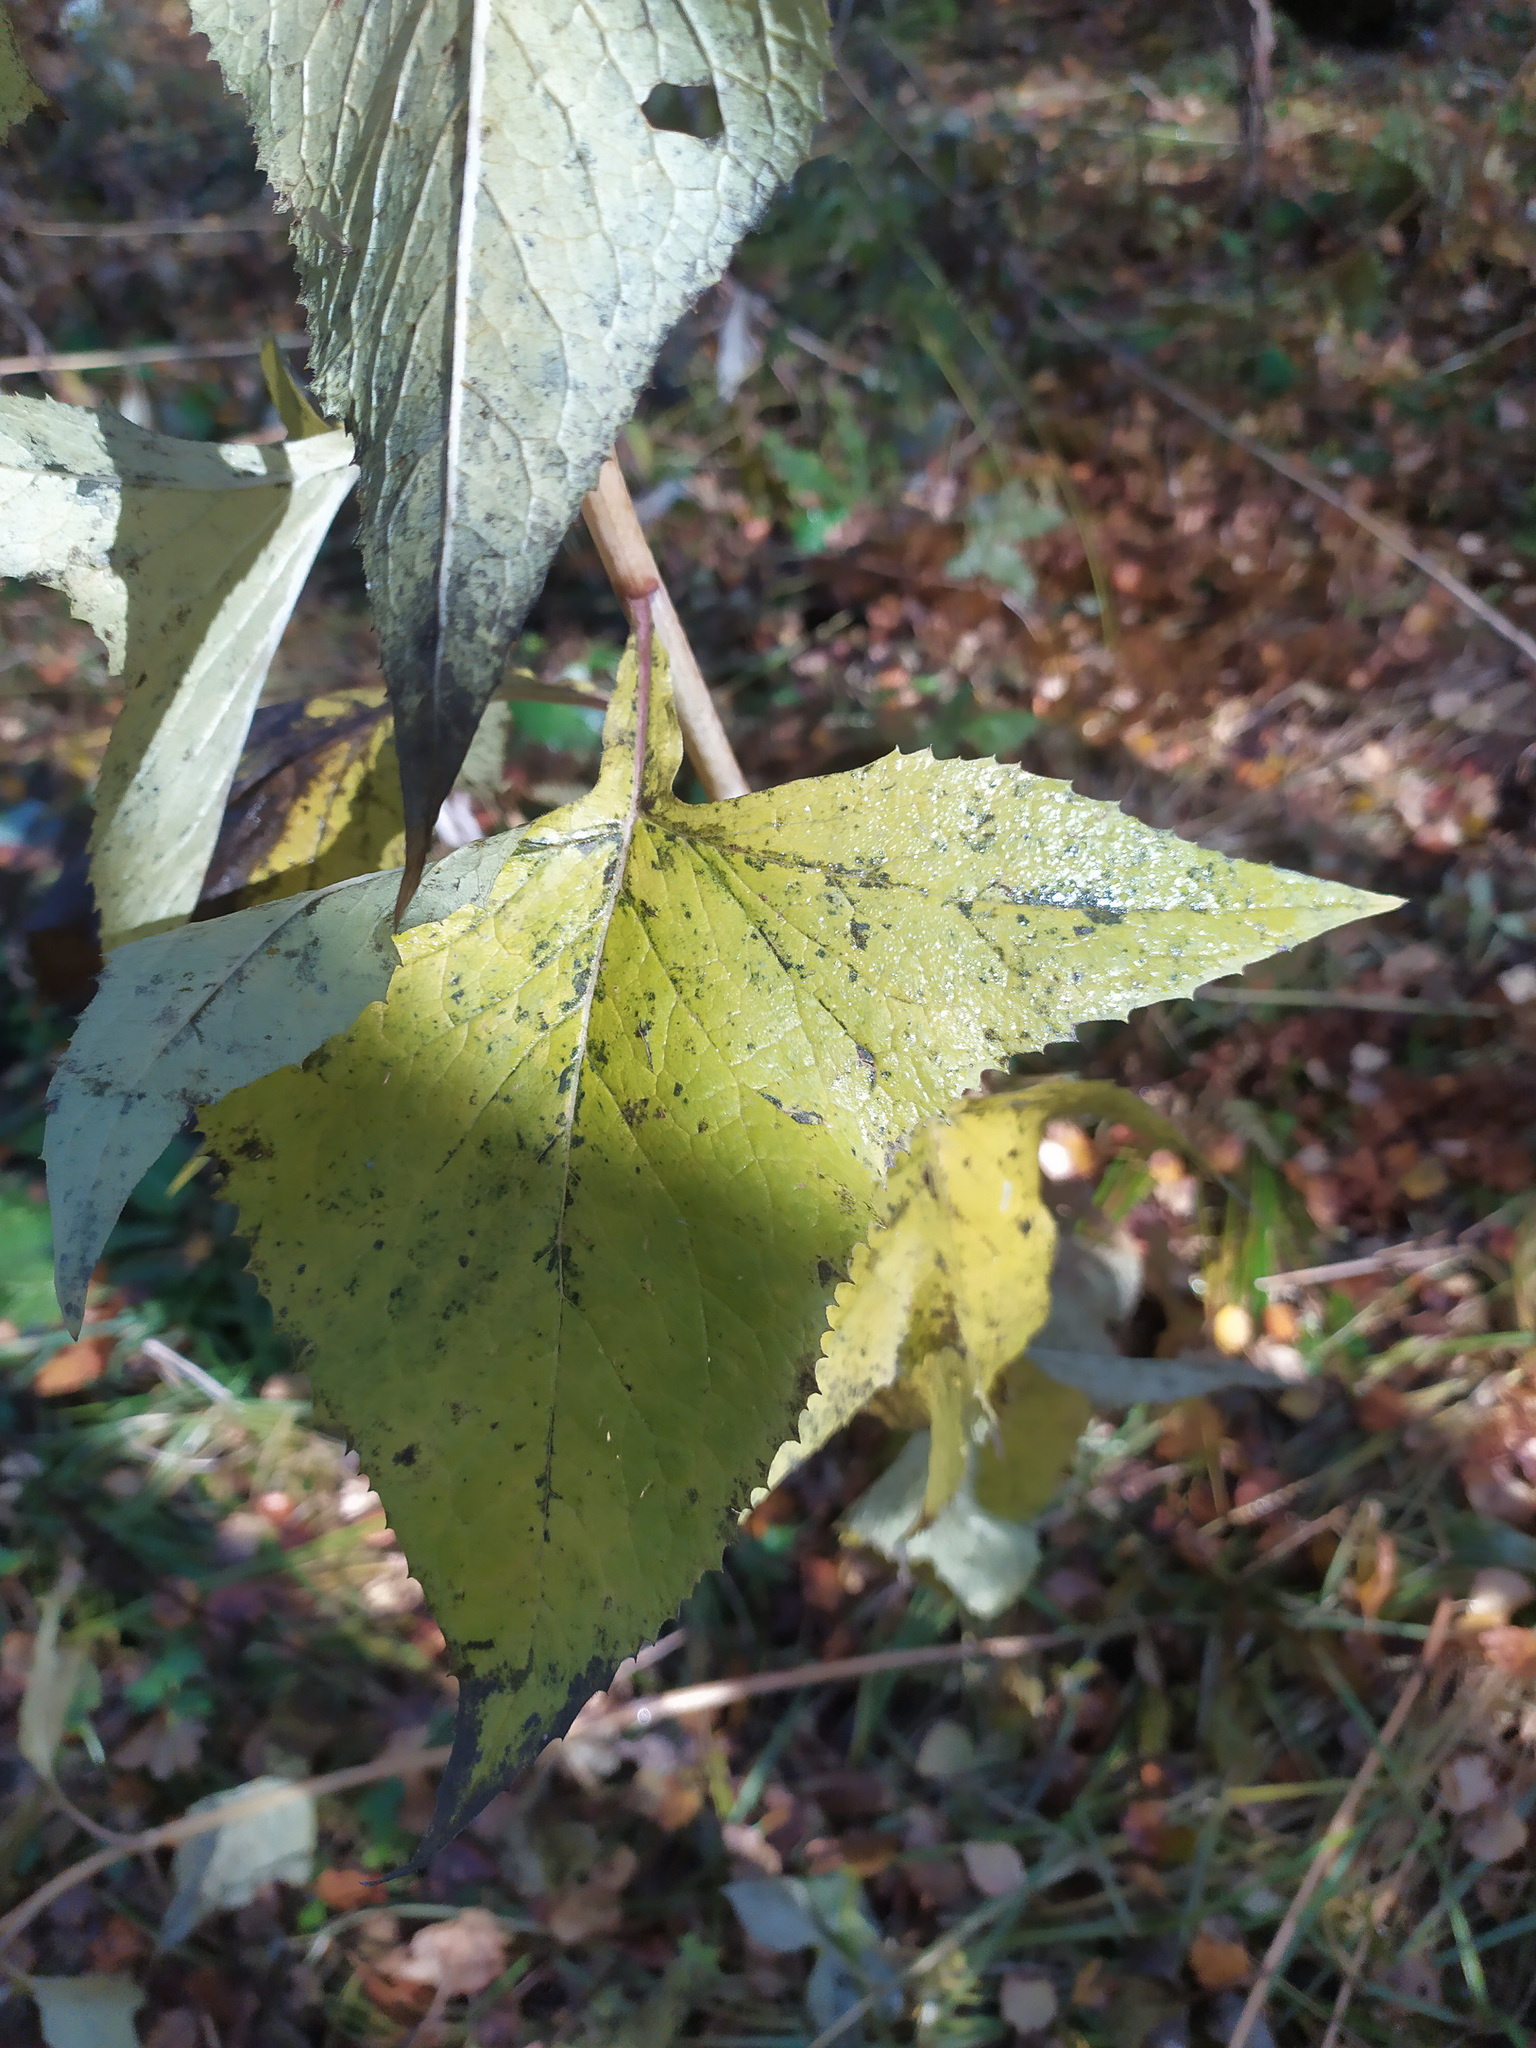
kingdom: Plantae
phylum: Tracheophyta
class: Magnoliopsida
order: Asterales
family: Asteraceae
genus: Parasenecio
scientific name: Parasenecio hastatus
